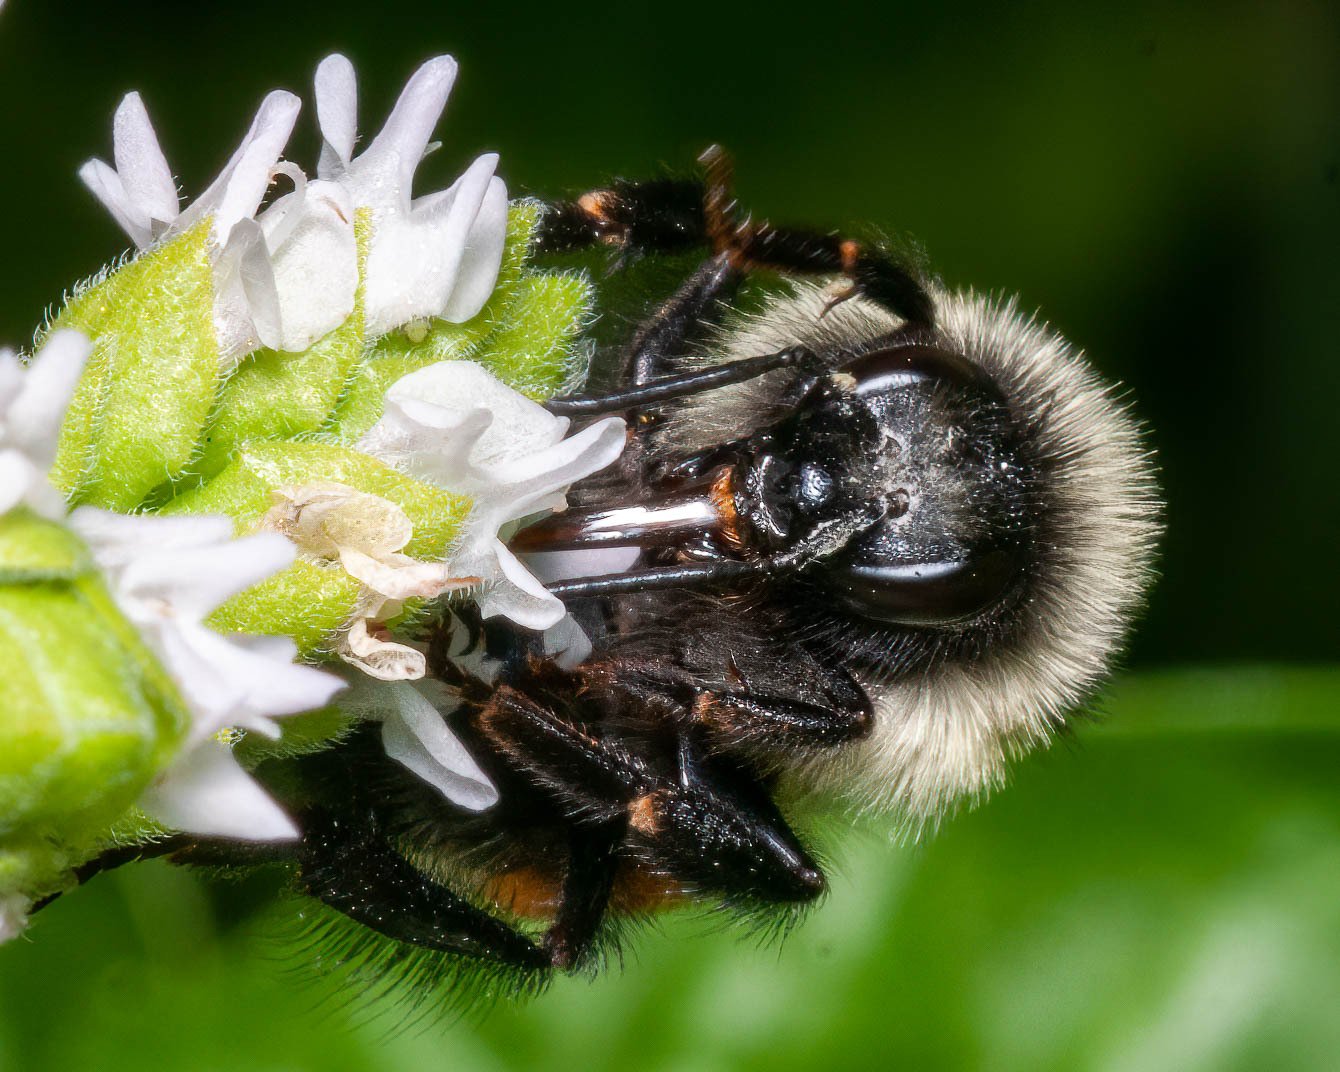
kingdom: Animalia
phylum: Arthropoda
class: Insecta
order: Hymenoptera
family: Apidae
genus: Bombus
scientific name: Bombus ternarius
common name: Tri-colored bumble bee
